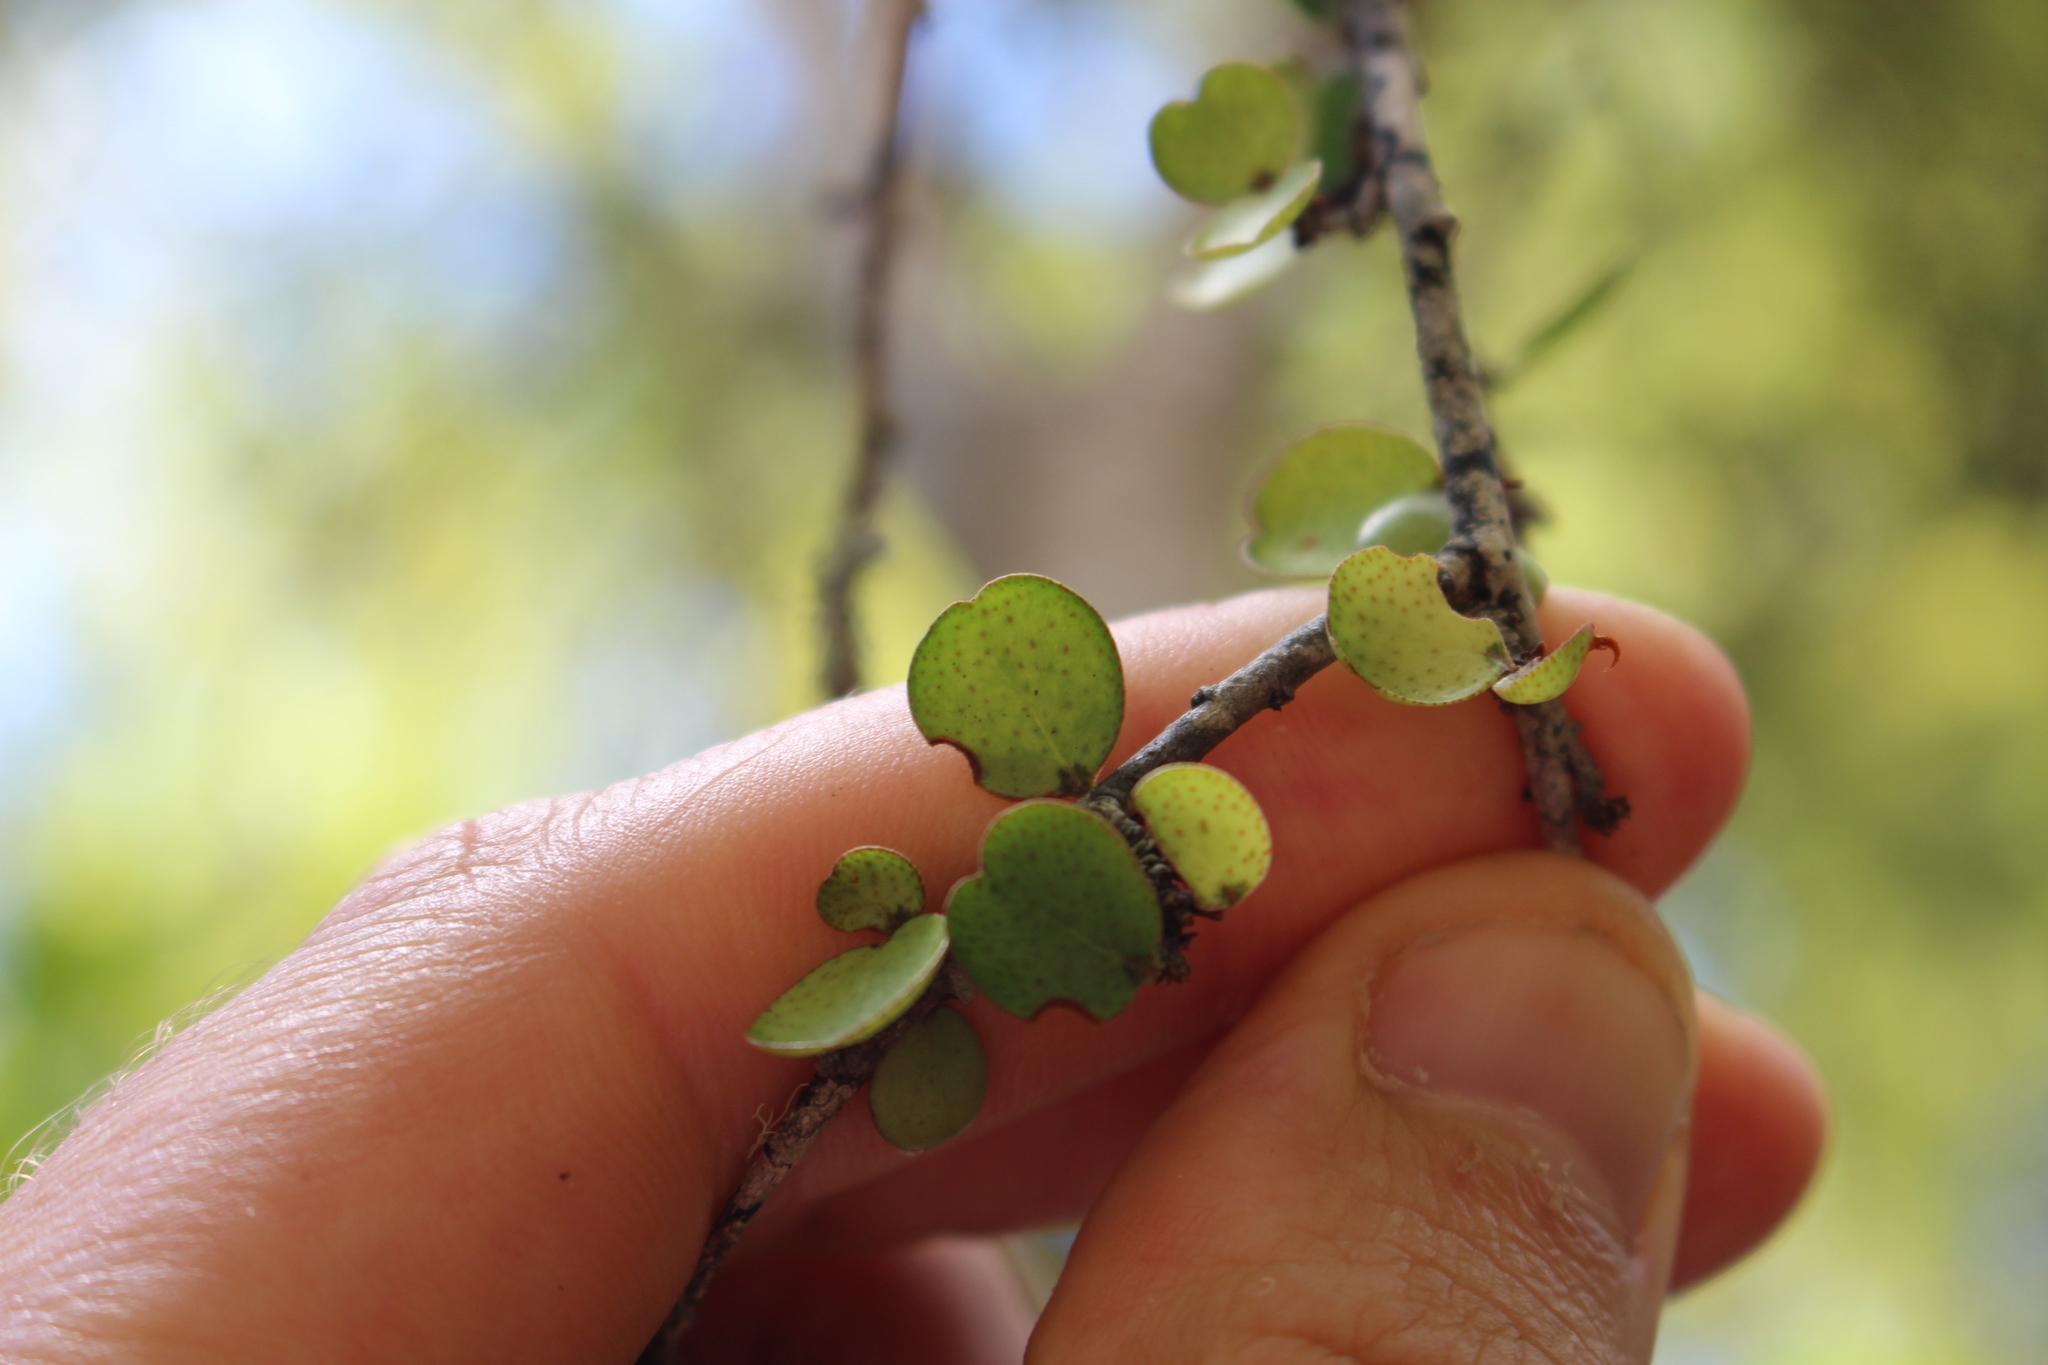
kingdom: Plantae
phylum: Tracheophyta
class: Magnoliopsida
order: Ericales
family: Primulaceae
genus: Myrsine
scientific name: Myrsine divaricata
